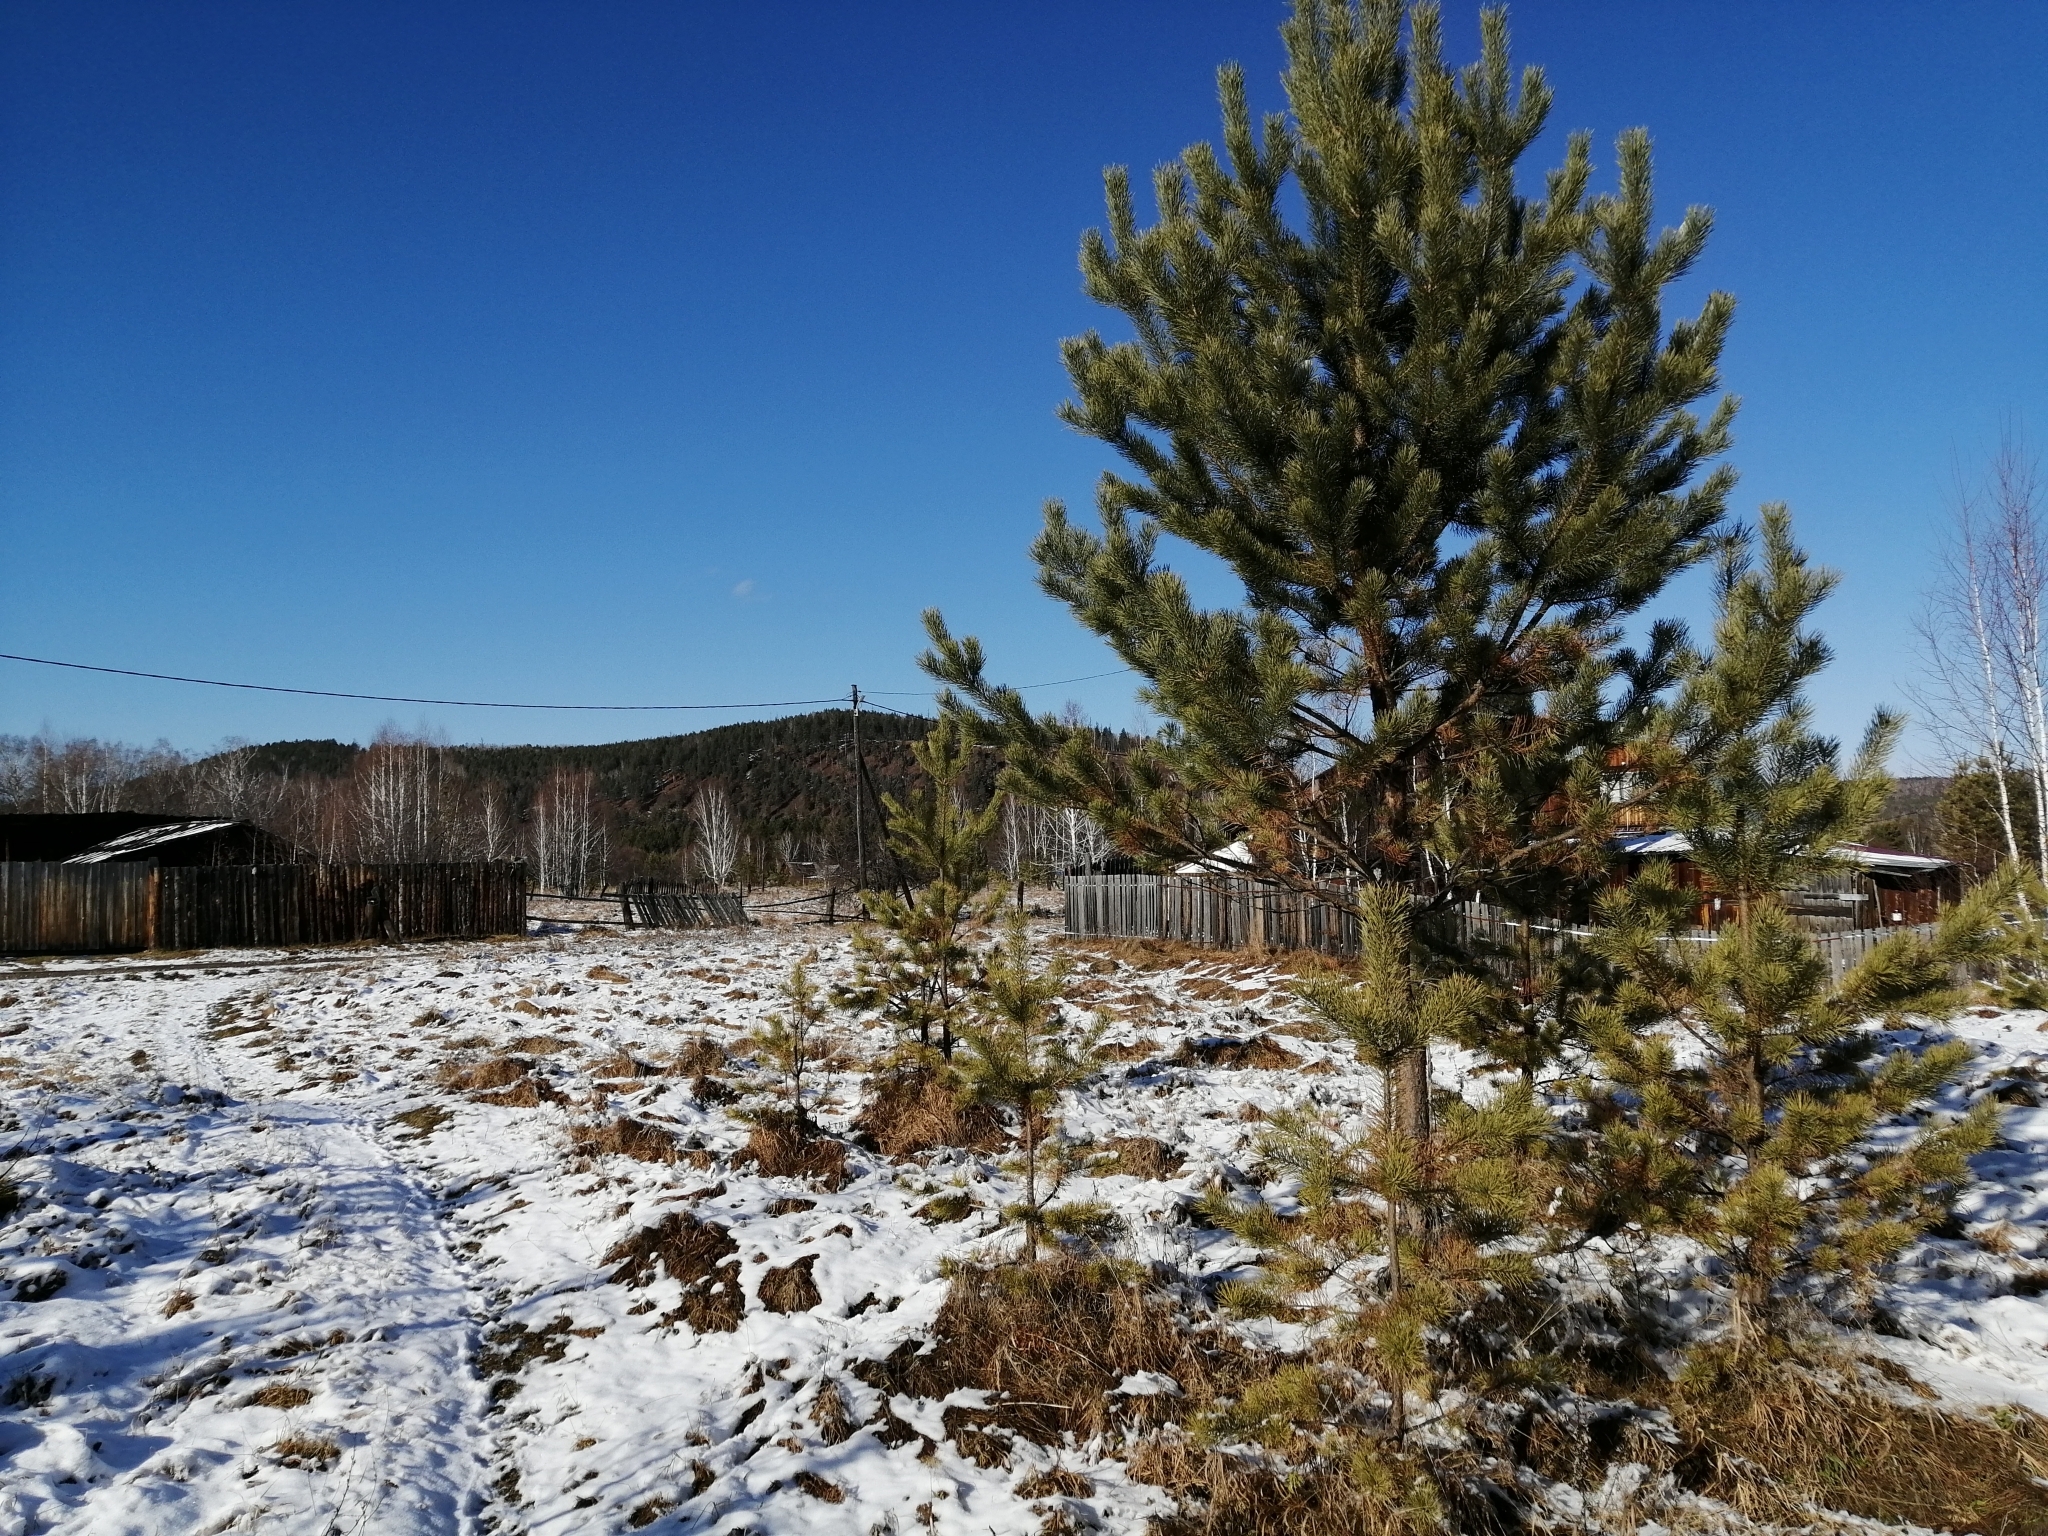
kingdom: Plantae
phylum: Tracheophyta
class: Pinopsida
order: Pinales
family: Pinaceae
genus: Pinus
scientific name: Pinus sylvestris
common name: Scots pine
